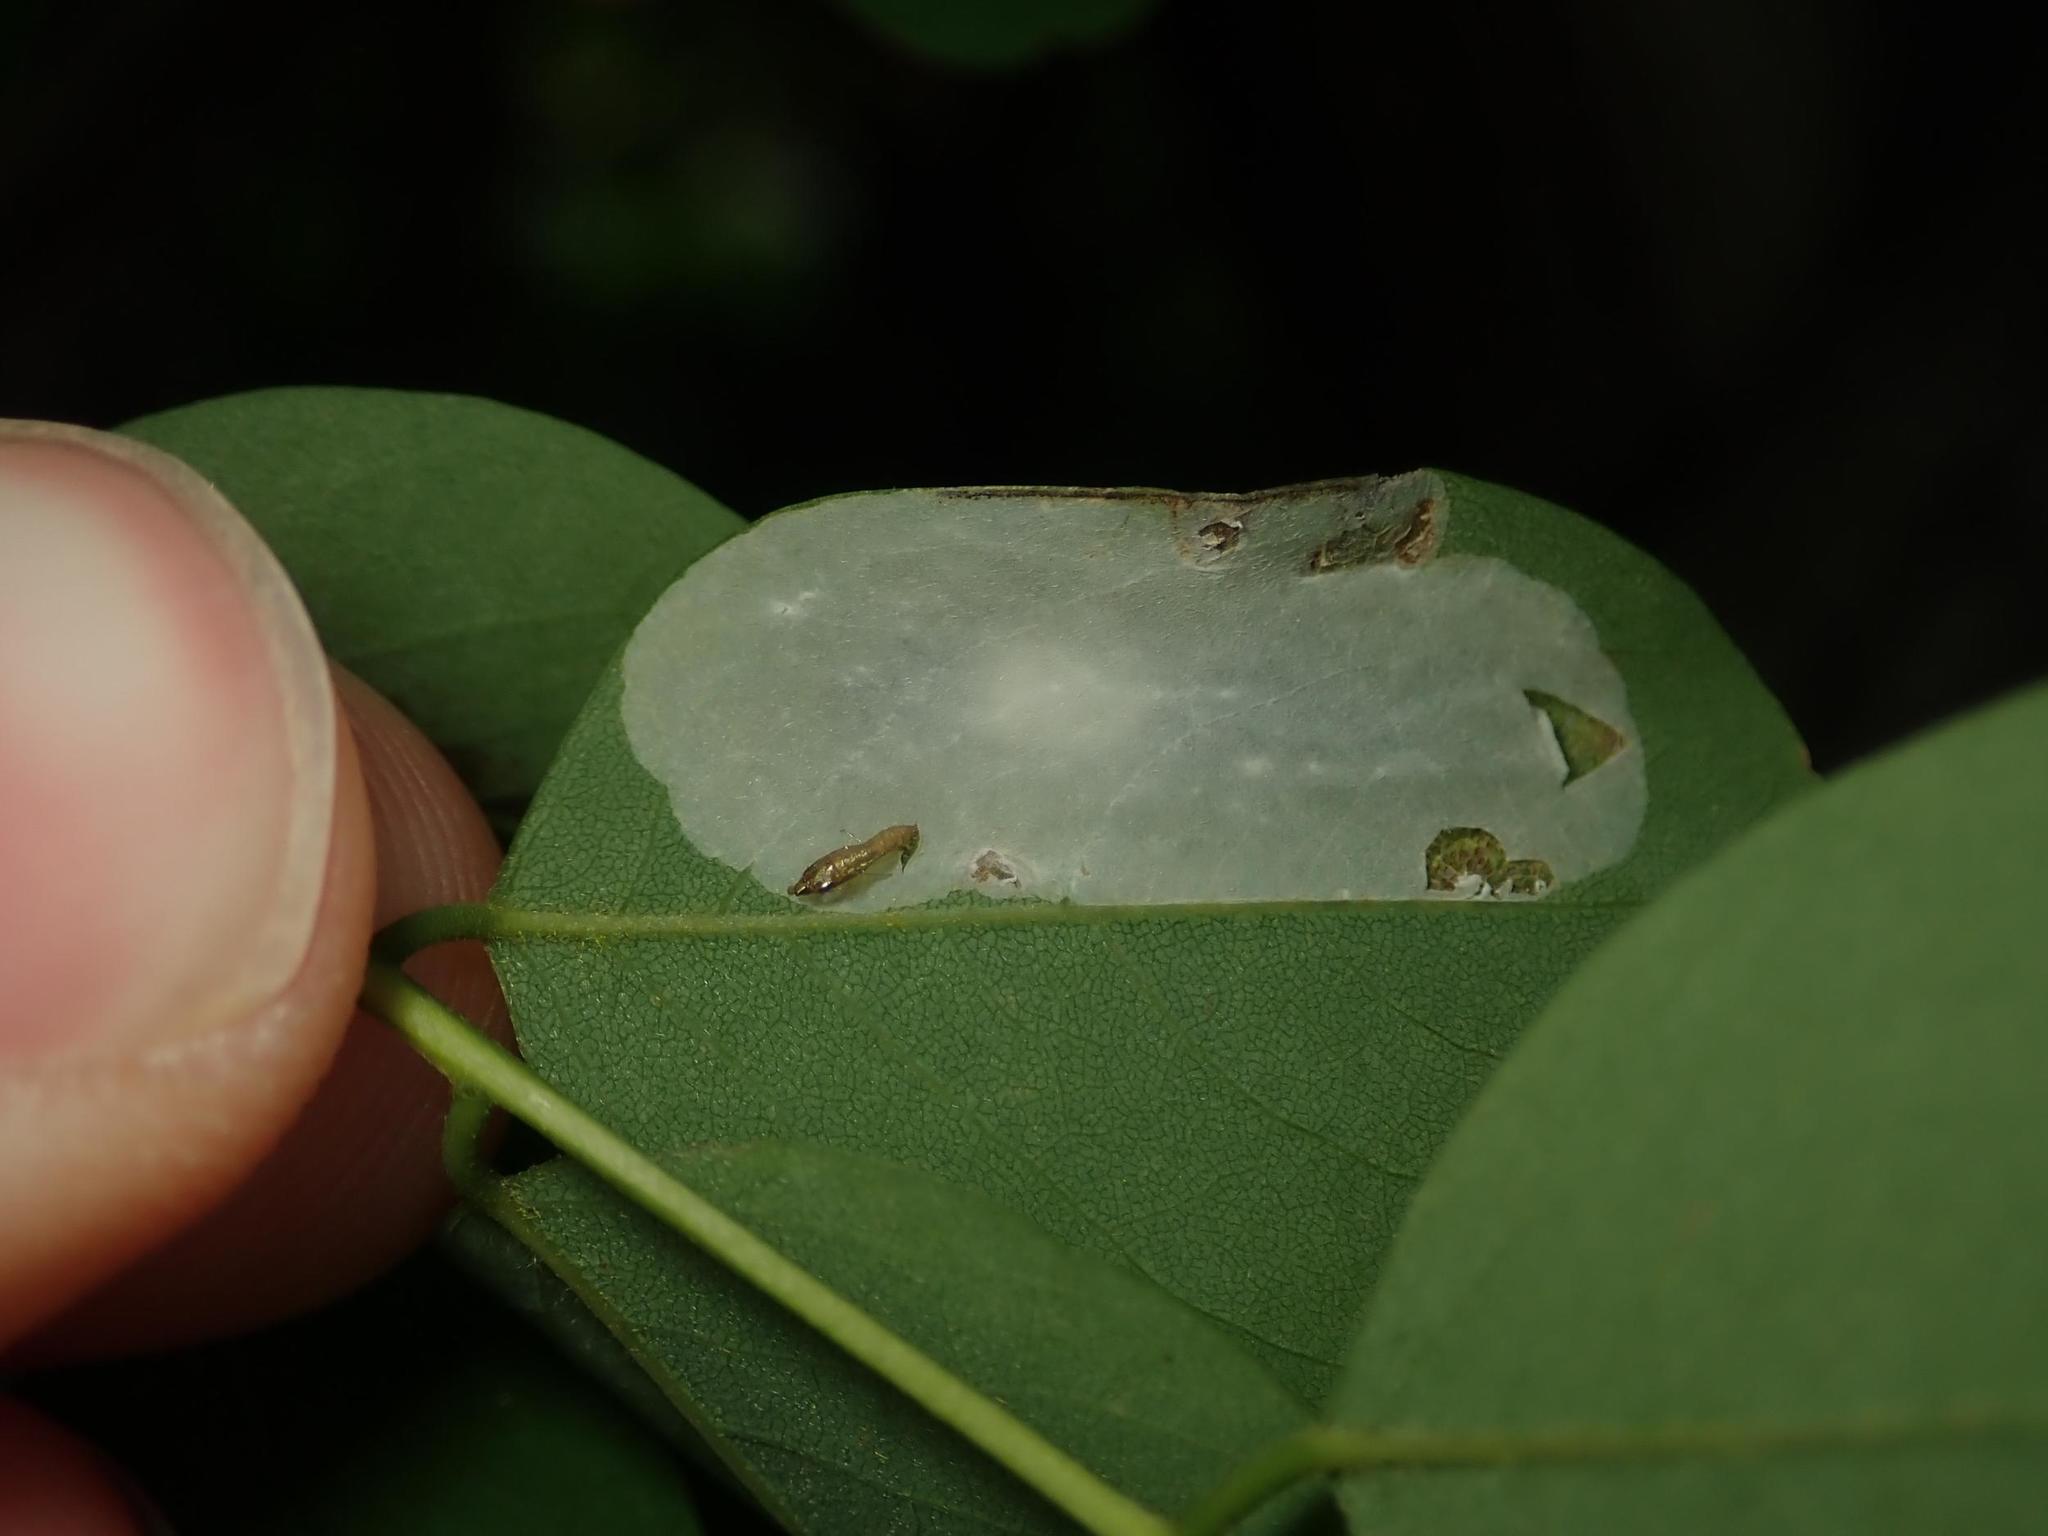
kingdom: Animalia
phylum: Arthropoda
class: Insecta
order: Lepidoptera
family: Gracillariidae
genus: Macrosaccus
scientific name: Macrosaccus robiniella
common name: Leaf blotch miner moth
